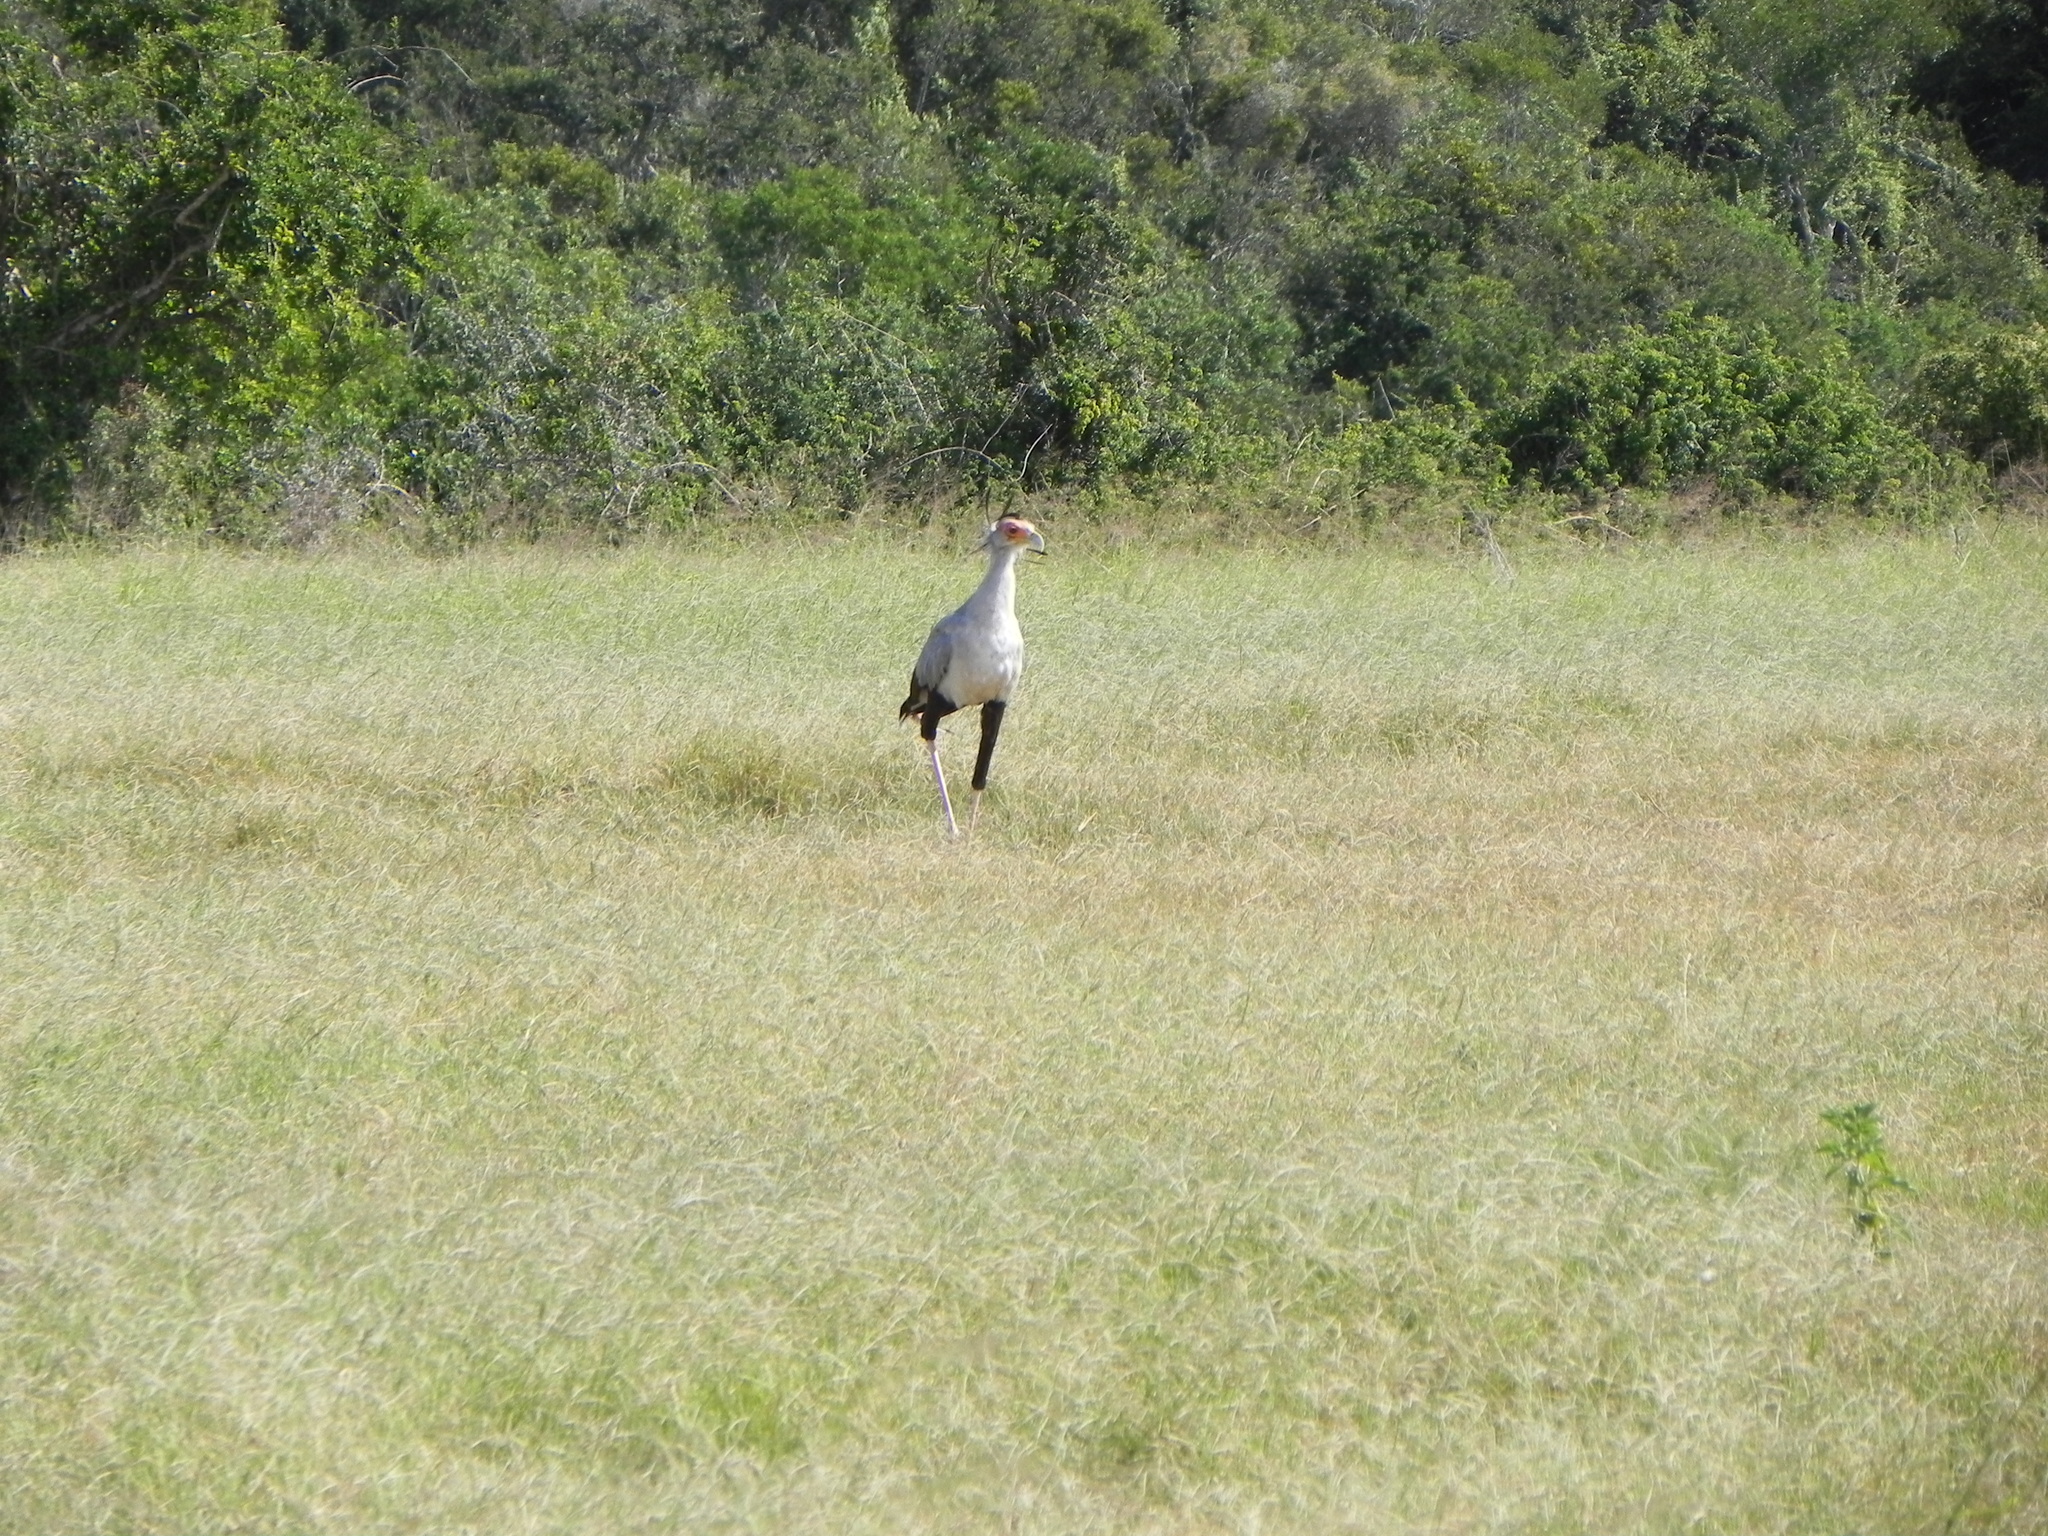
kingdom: Animalia
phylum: Chordata
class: Aves
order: Accipitriformes
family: Sagittariidae
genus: Sagittarius
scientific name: Sagittarius serpentarius
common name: Secretarybird
